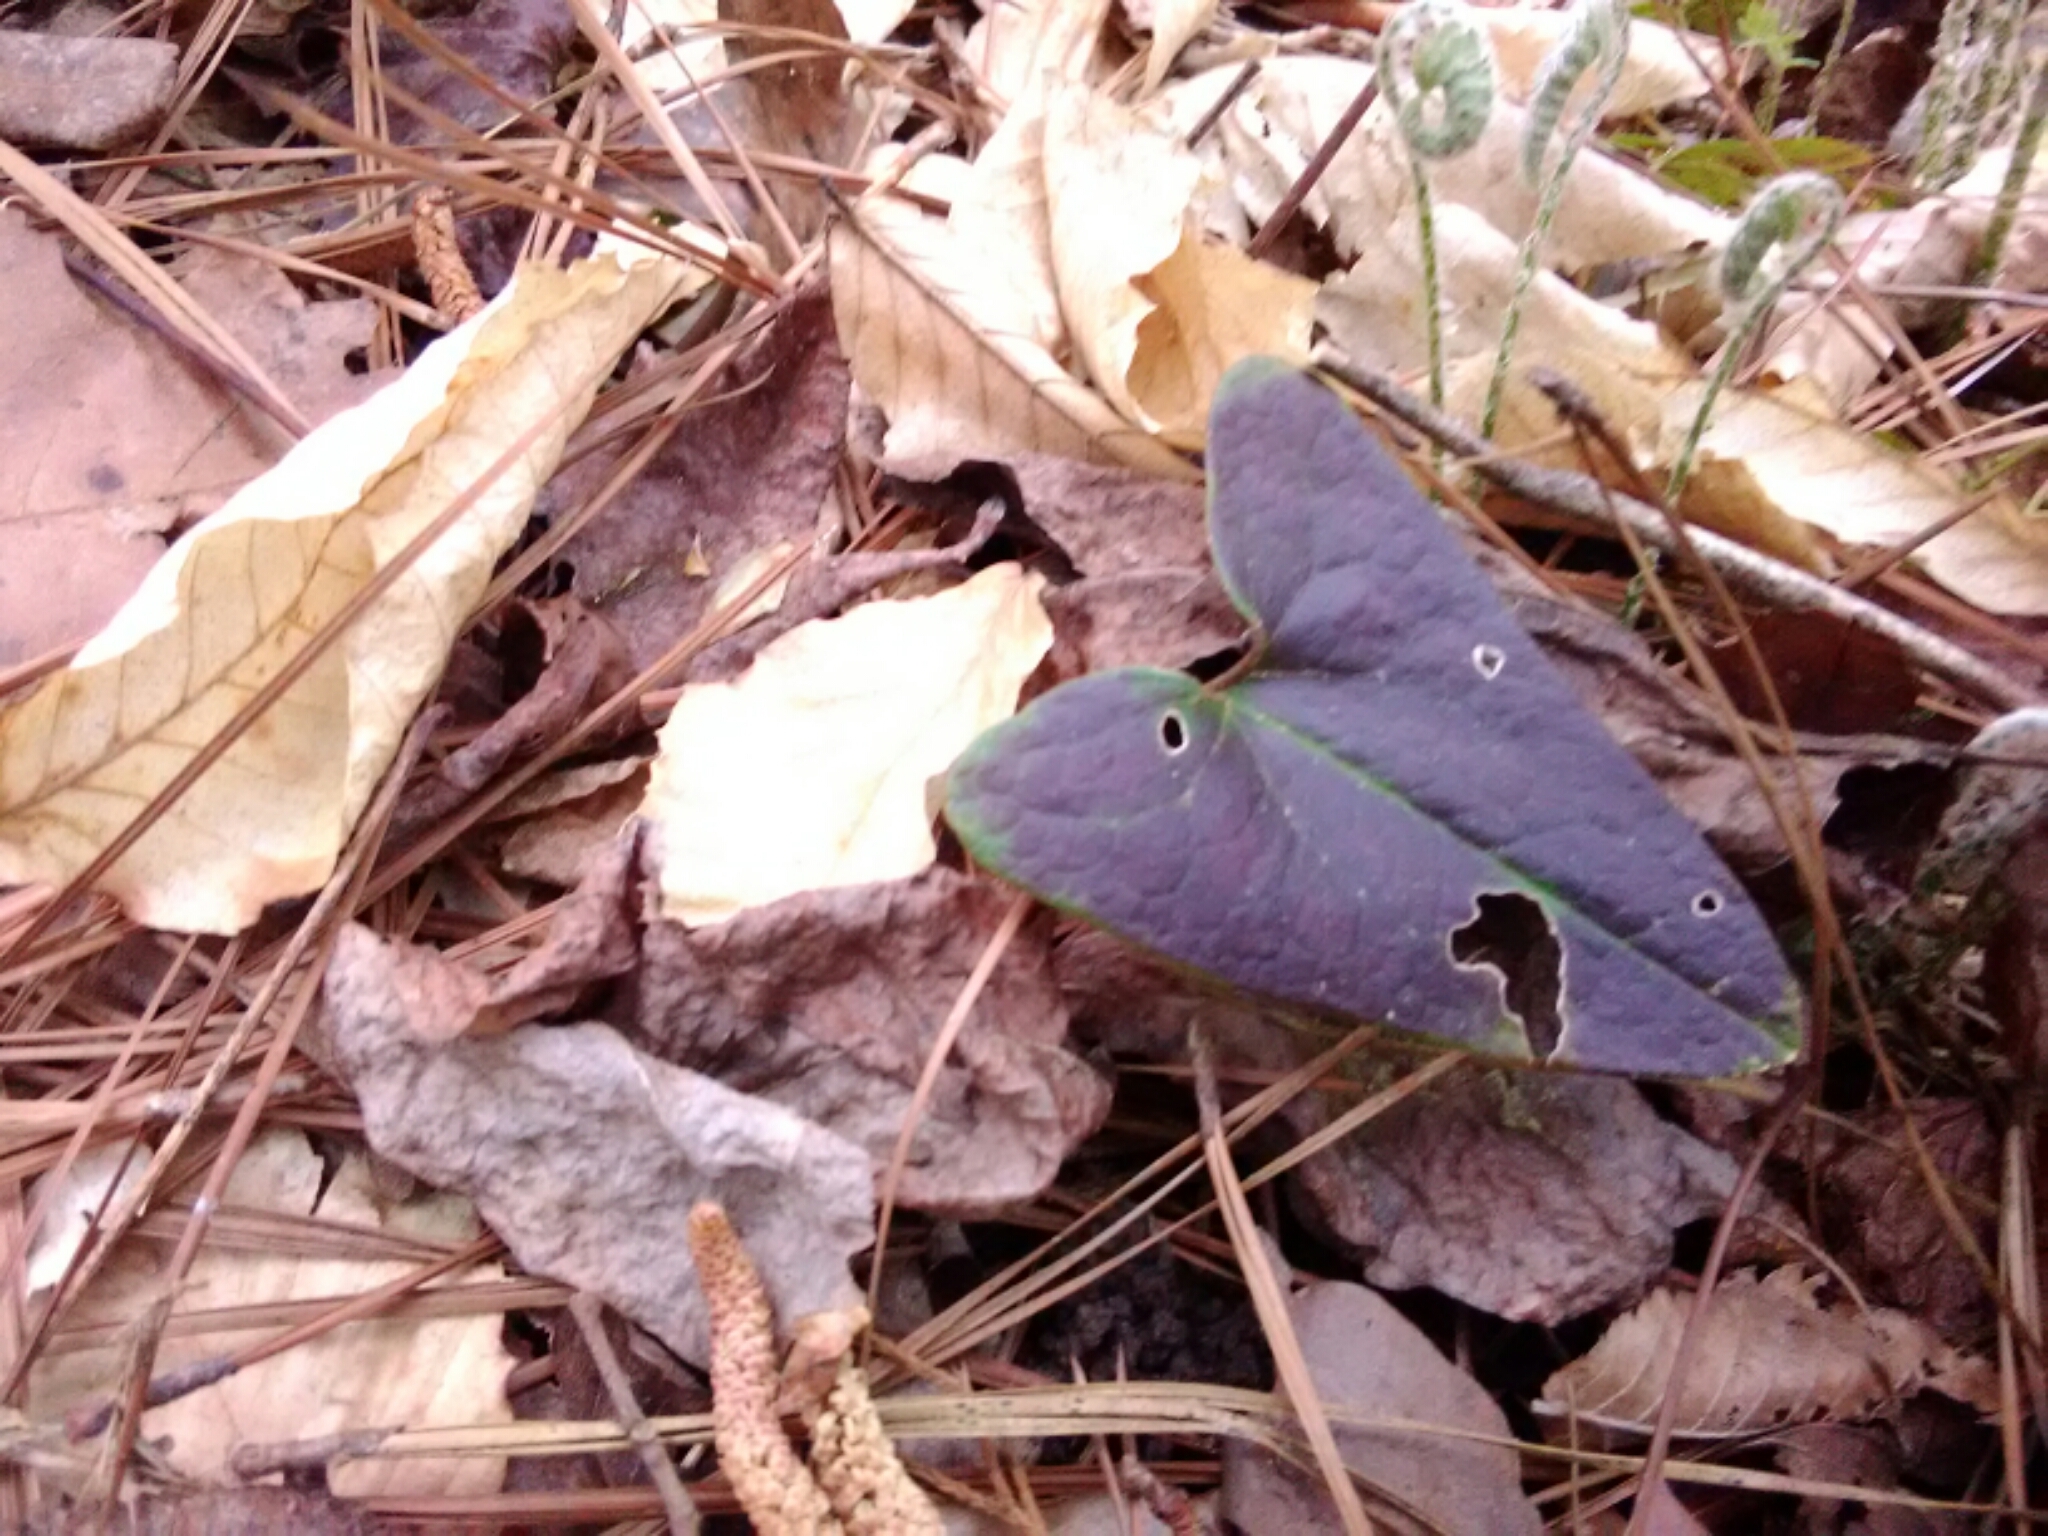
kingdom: Plantae
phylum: Tracheophyta
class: Magnoliopsida
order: Piperales
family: Aristolochiaceae
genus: Hexastylis
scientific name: Hexastylis arifolia
